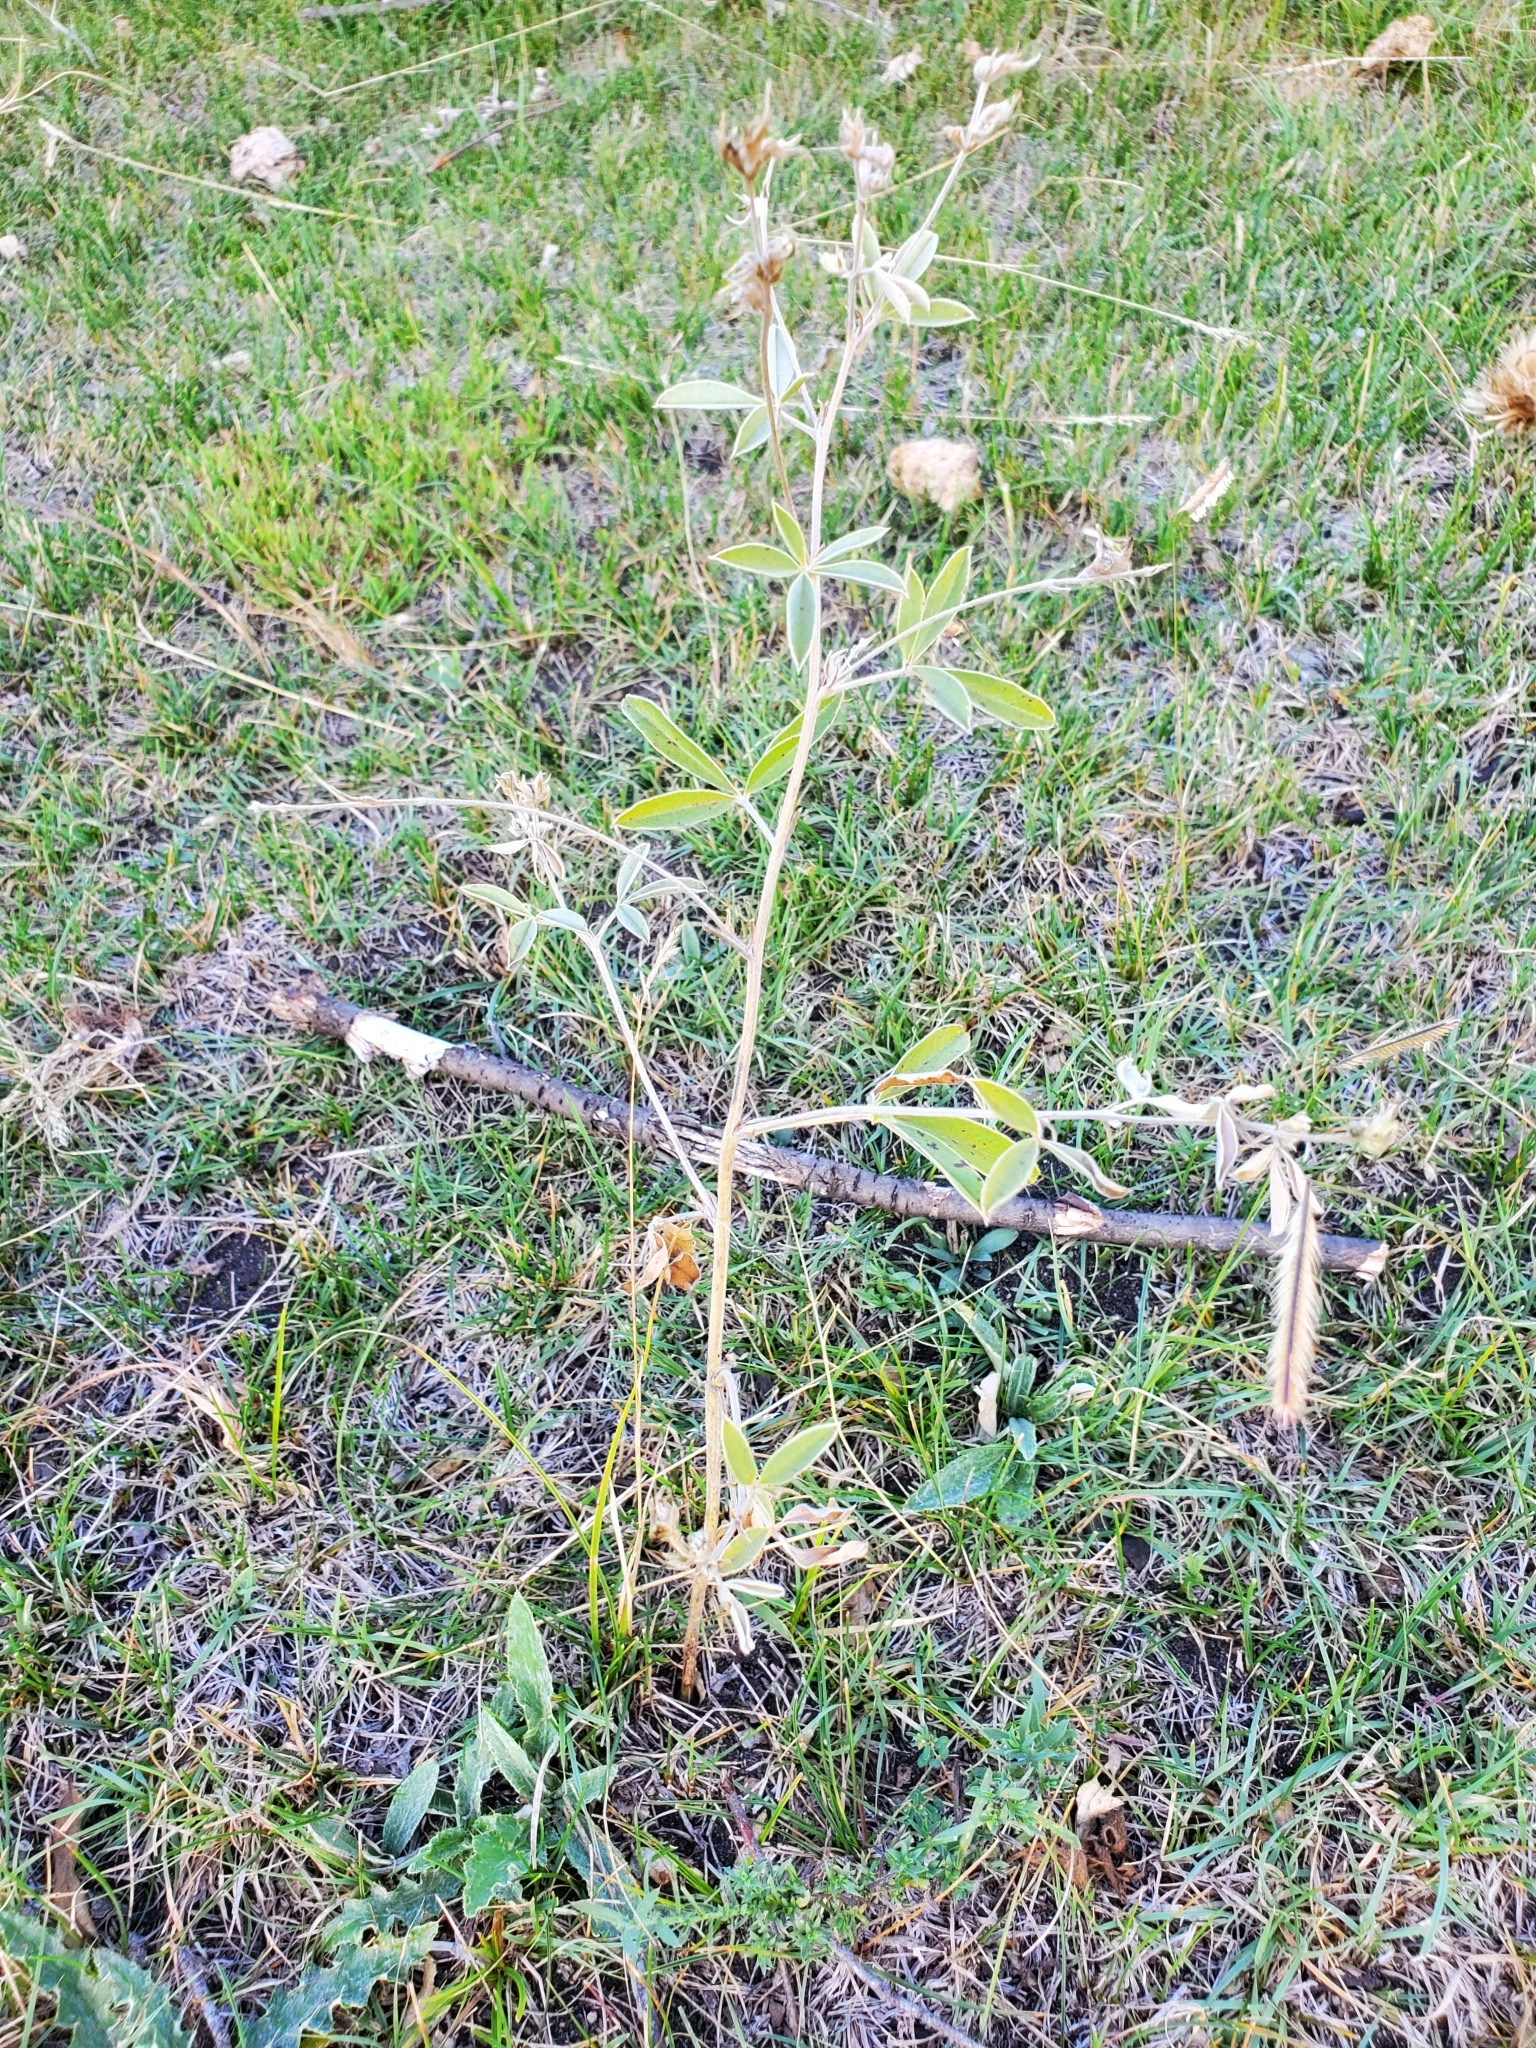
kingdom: Plantae
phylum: Tracheophyta
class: Magnoliopsida
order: Fabales
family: Fabaceae
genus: Pediomelum
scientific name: Pediomelum argophyllum
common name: Silver-leaved indian breadroot
